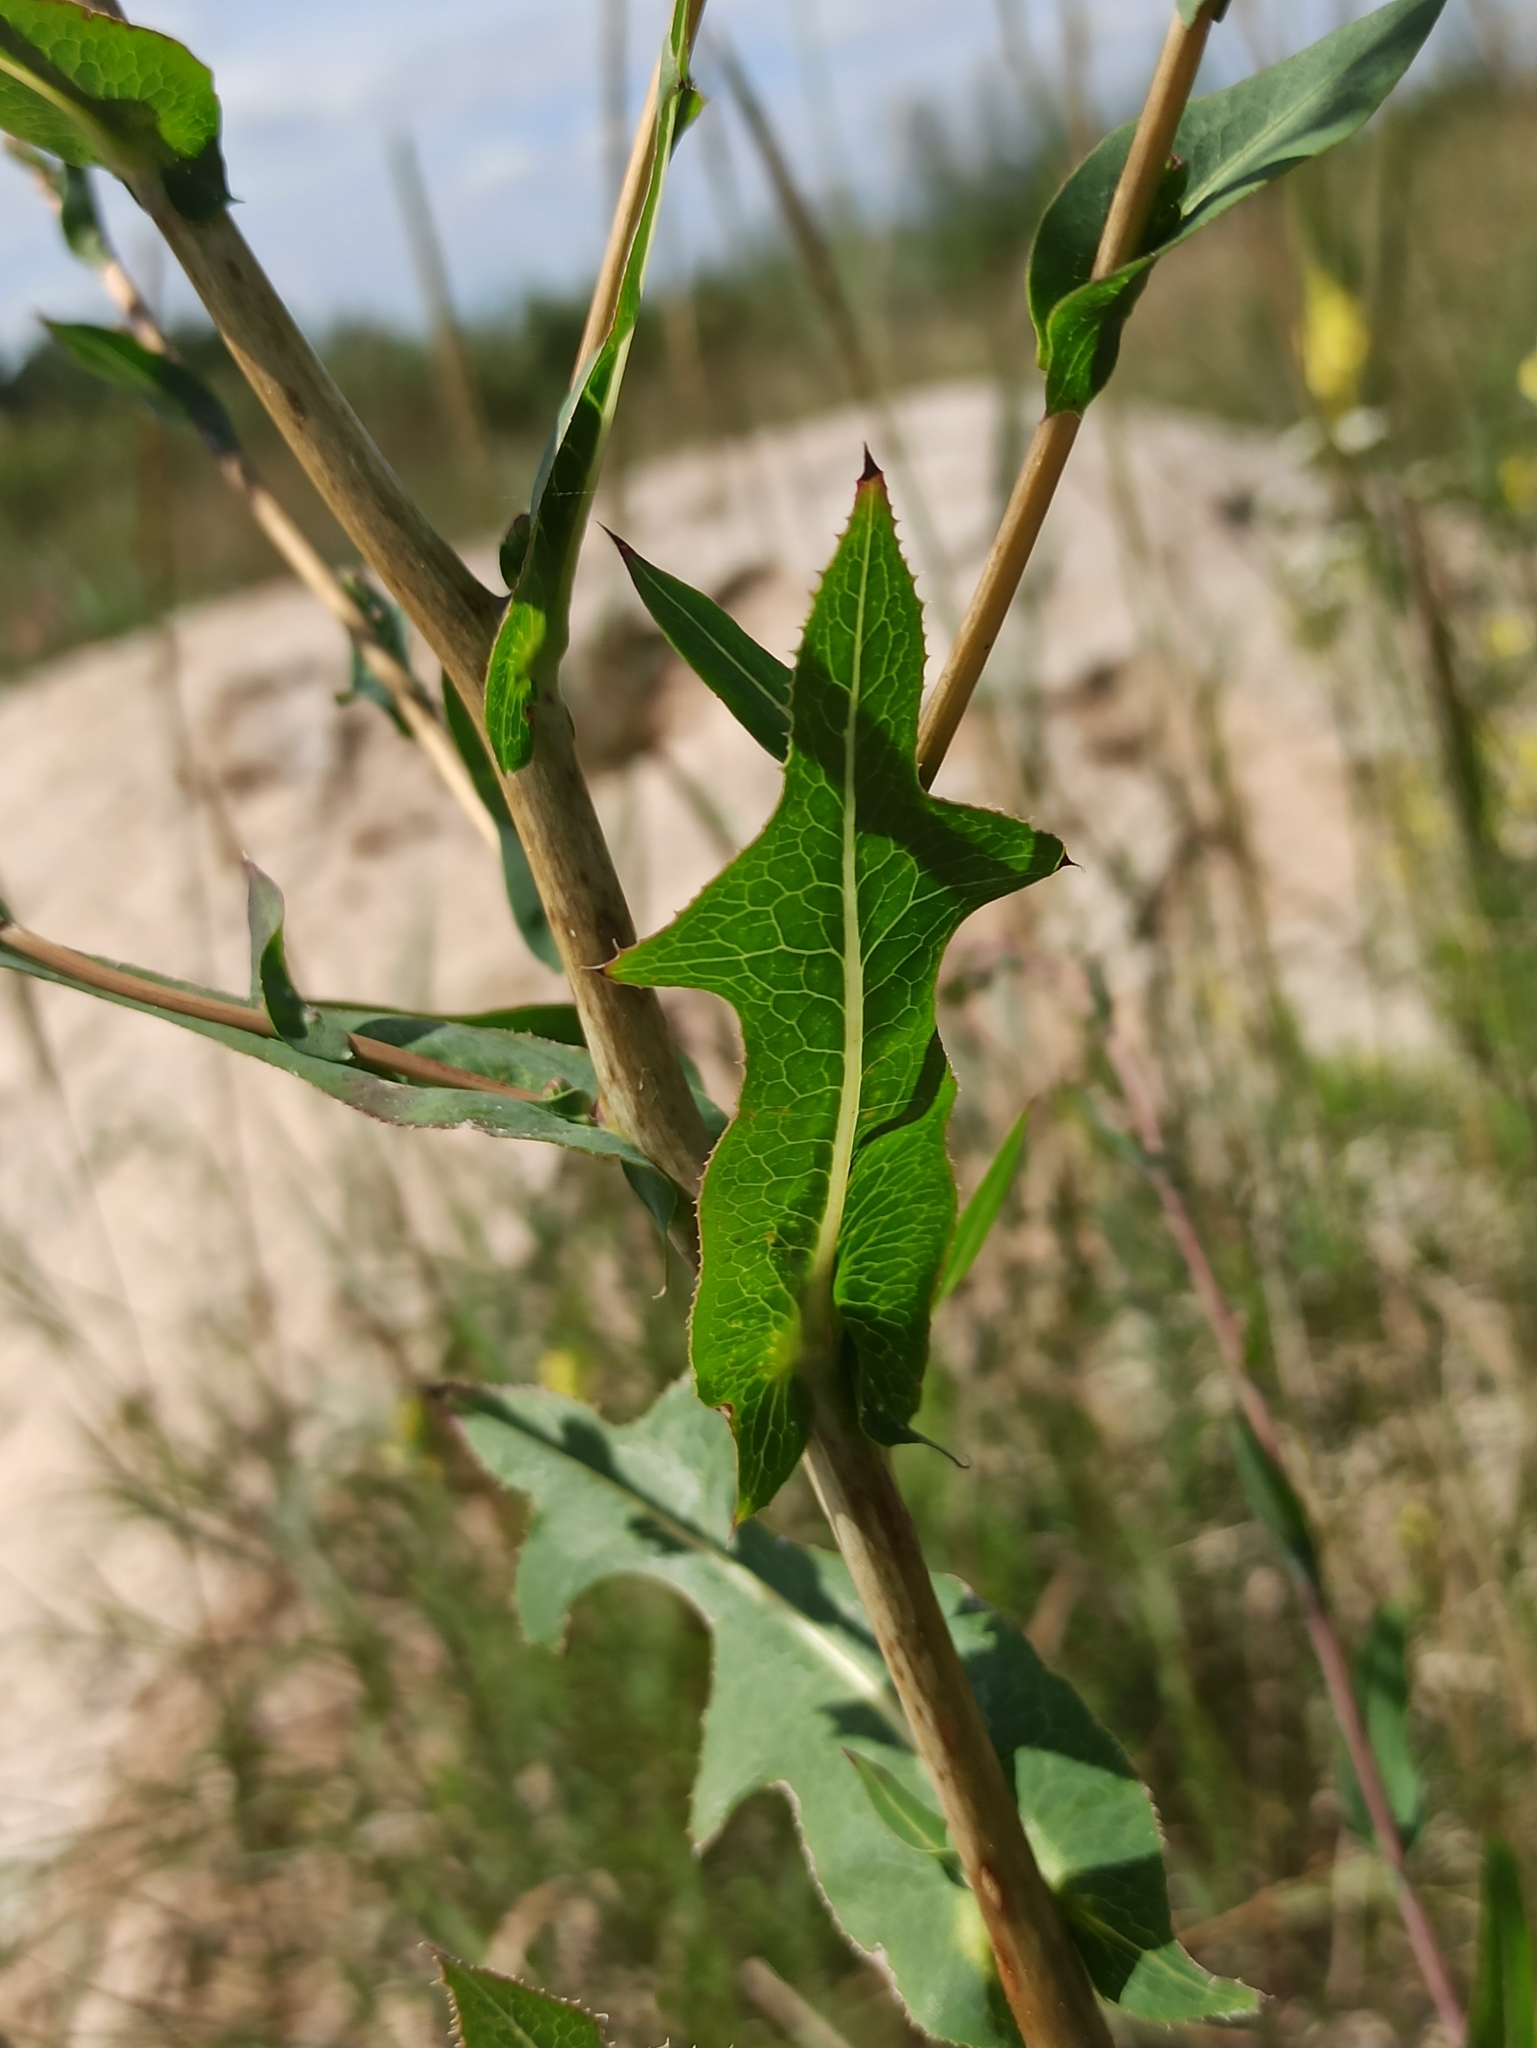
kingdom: Plantae
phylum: Tracheophyta
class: Magnoliopsida
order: Asterales
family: Asteraceae
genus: Lactuca
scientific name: Lactuca serriola
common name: Prickly lettuce
